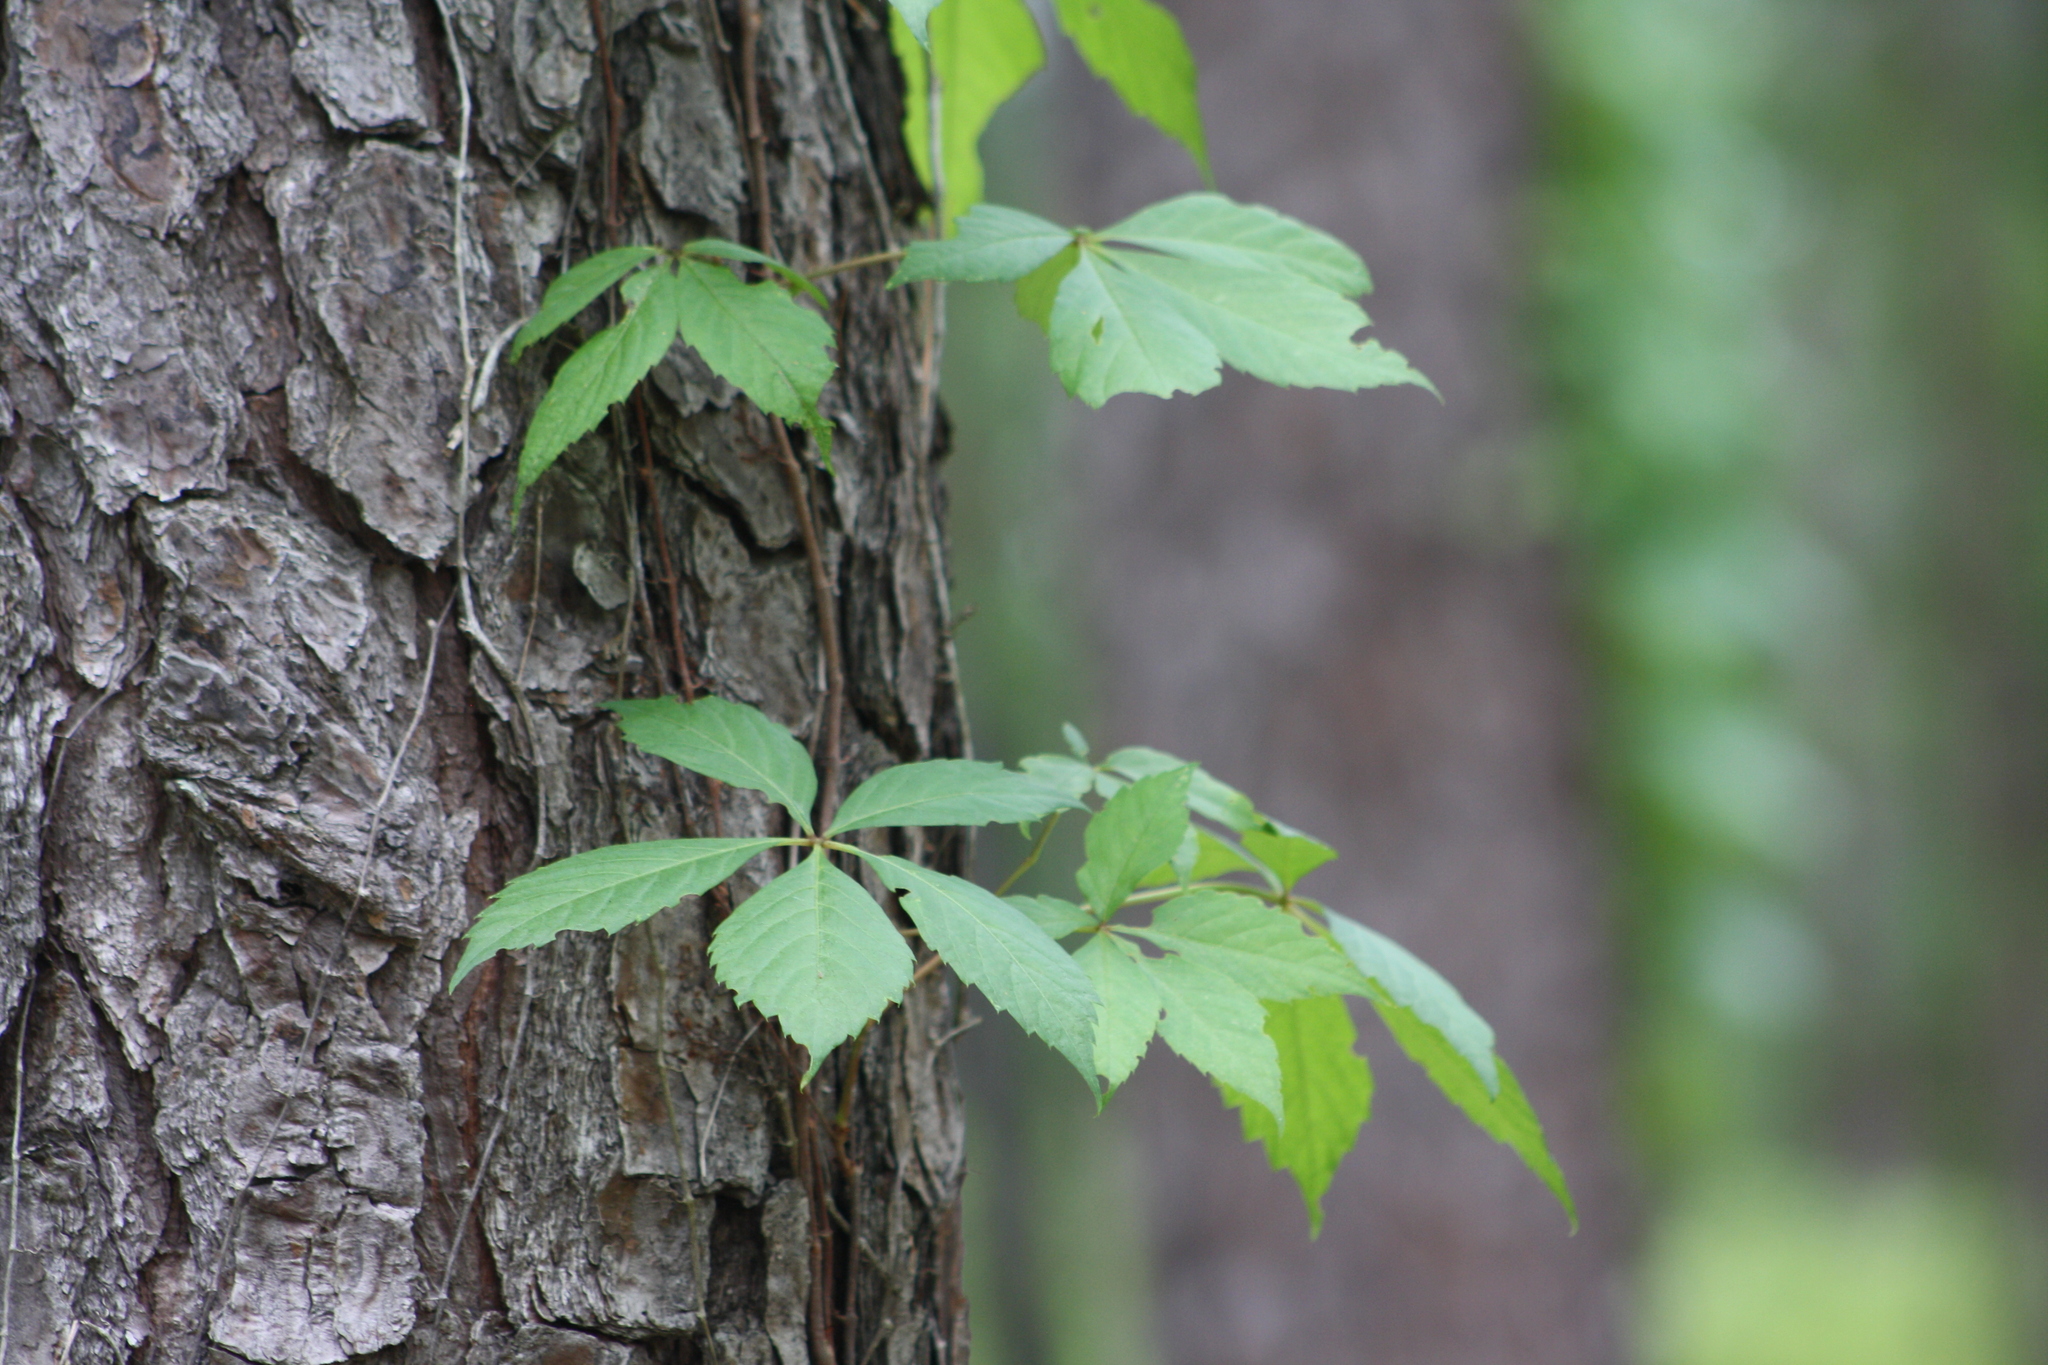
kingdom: Plantae
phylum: Tracheophyta
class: Magnoliopsida
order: Vitales
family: Vitaceae
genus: Parthenocissus
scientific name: Parthenocissus quinquefolia
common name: Virginia-creeper
